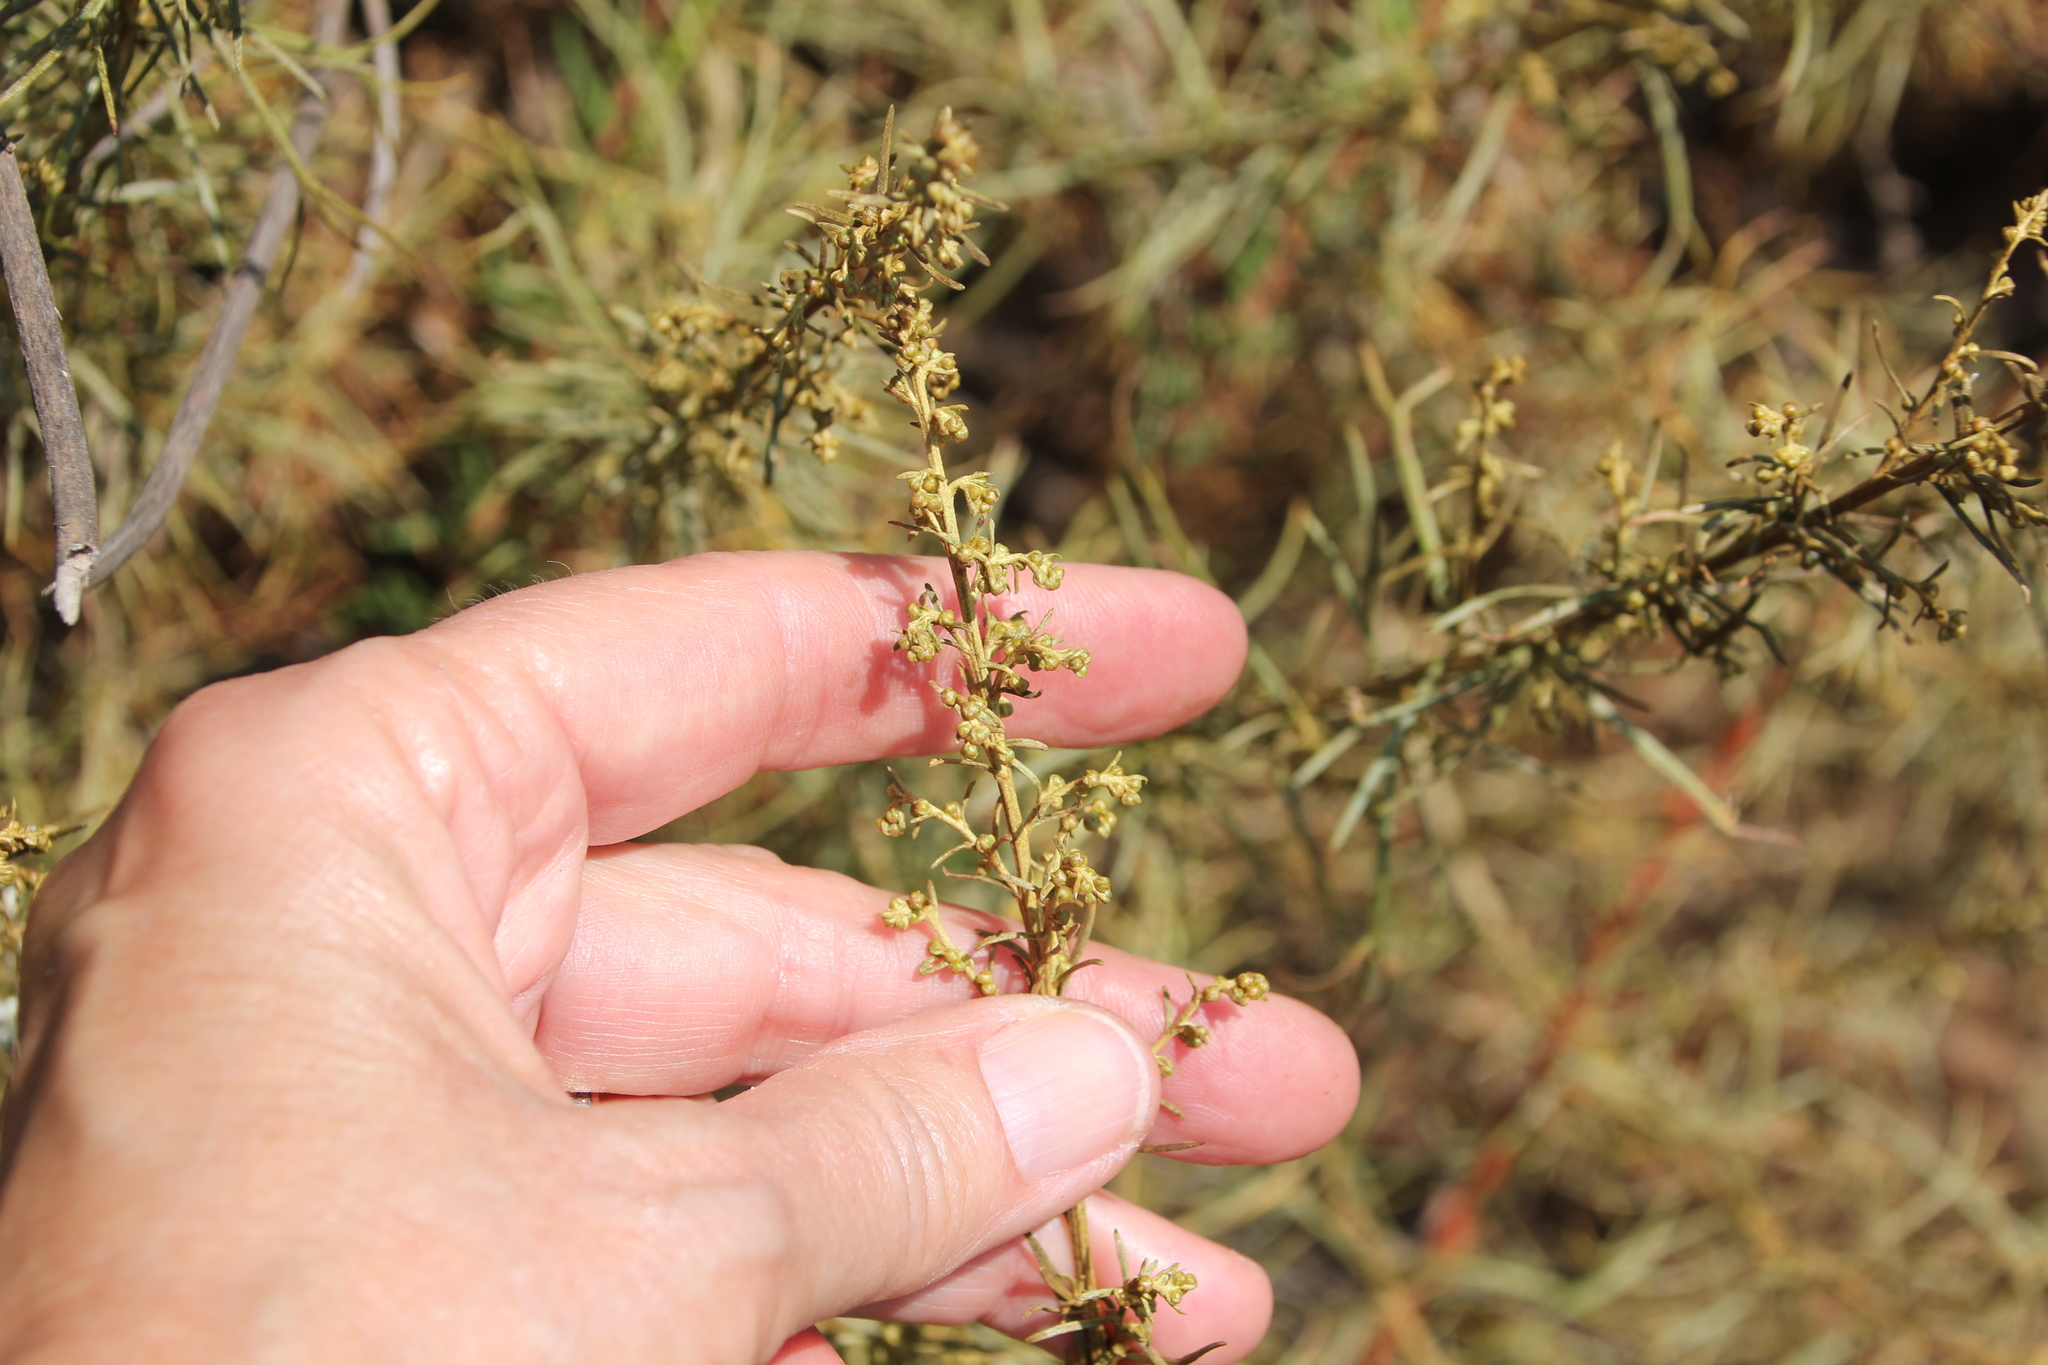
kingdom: Plantae
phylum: Tracheophyta
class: Magnoliopsida
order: Asterales
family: Asteraceae
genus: Artemisia
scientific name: Artemisia californica
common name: California sagebrush
